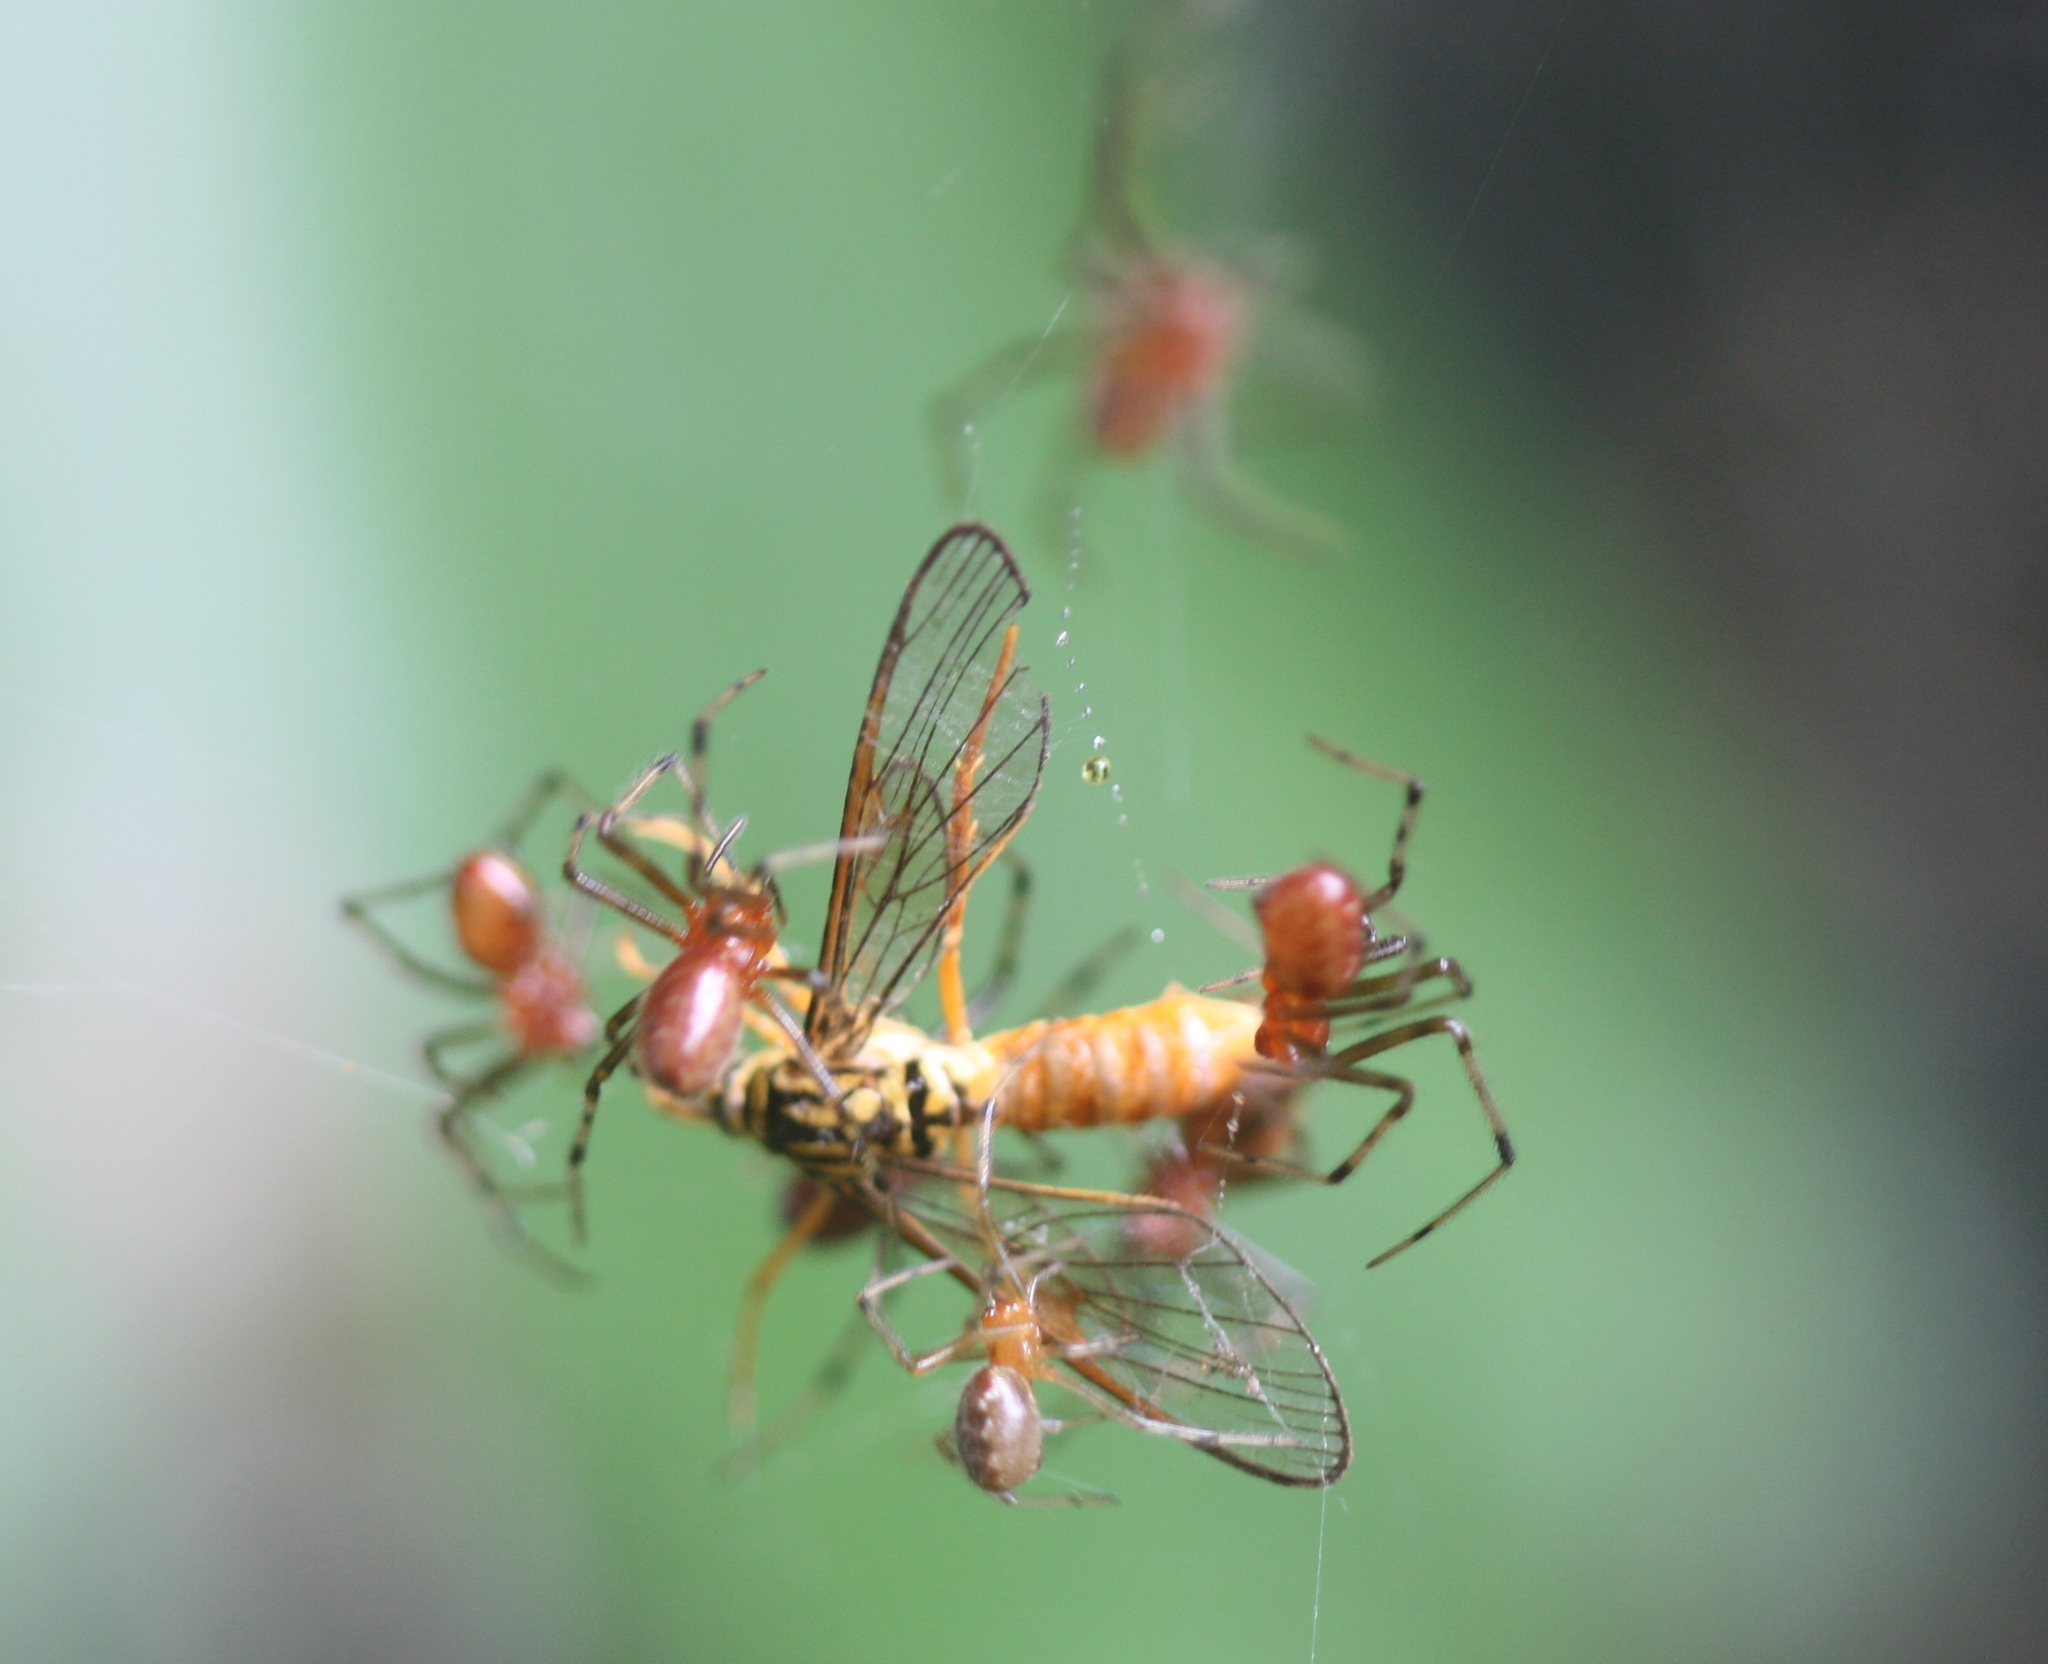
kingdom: Animalia
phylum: Arthropoda
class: Arachnida
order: Araneae
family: Theridiidae
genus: Anelosimus
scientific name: Anelosimus eximius
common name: Cobweb spiders
